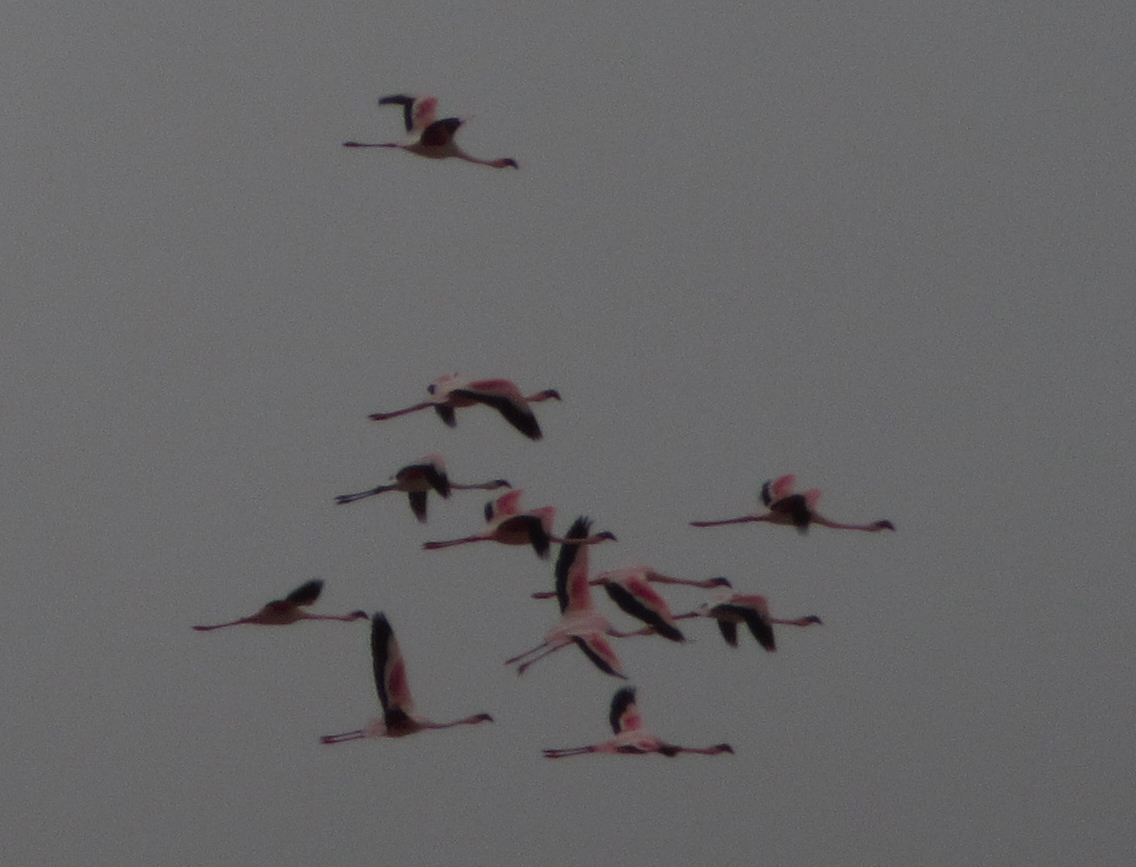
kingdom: Animalia
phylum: Chordata
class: Aves
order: Phoenicopteriformes
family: Phoenicopteridae
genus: Phoeniconaias
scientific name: Phoeniconaias minor
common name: Lesser flamingo
